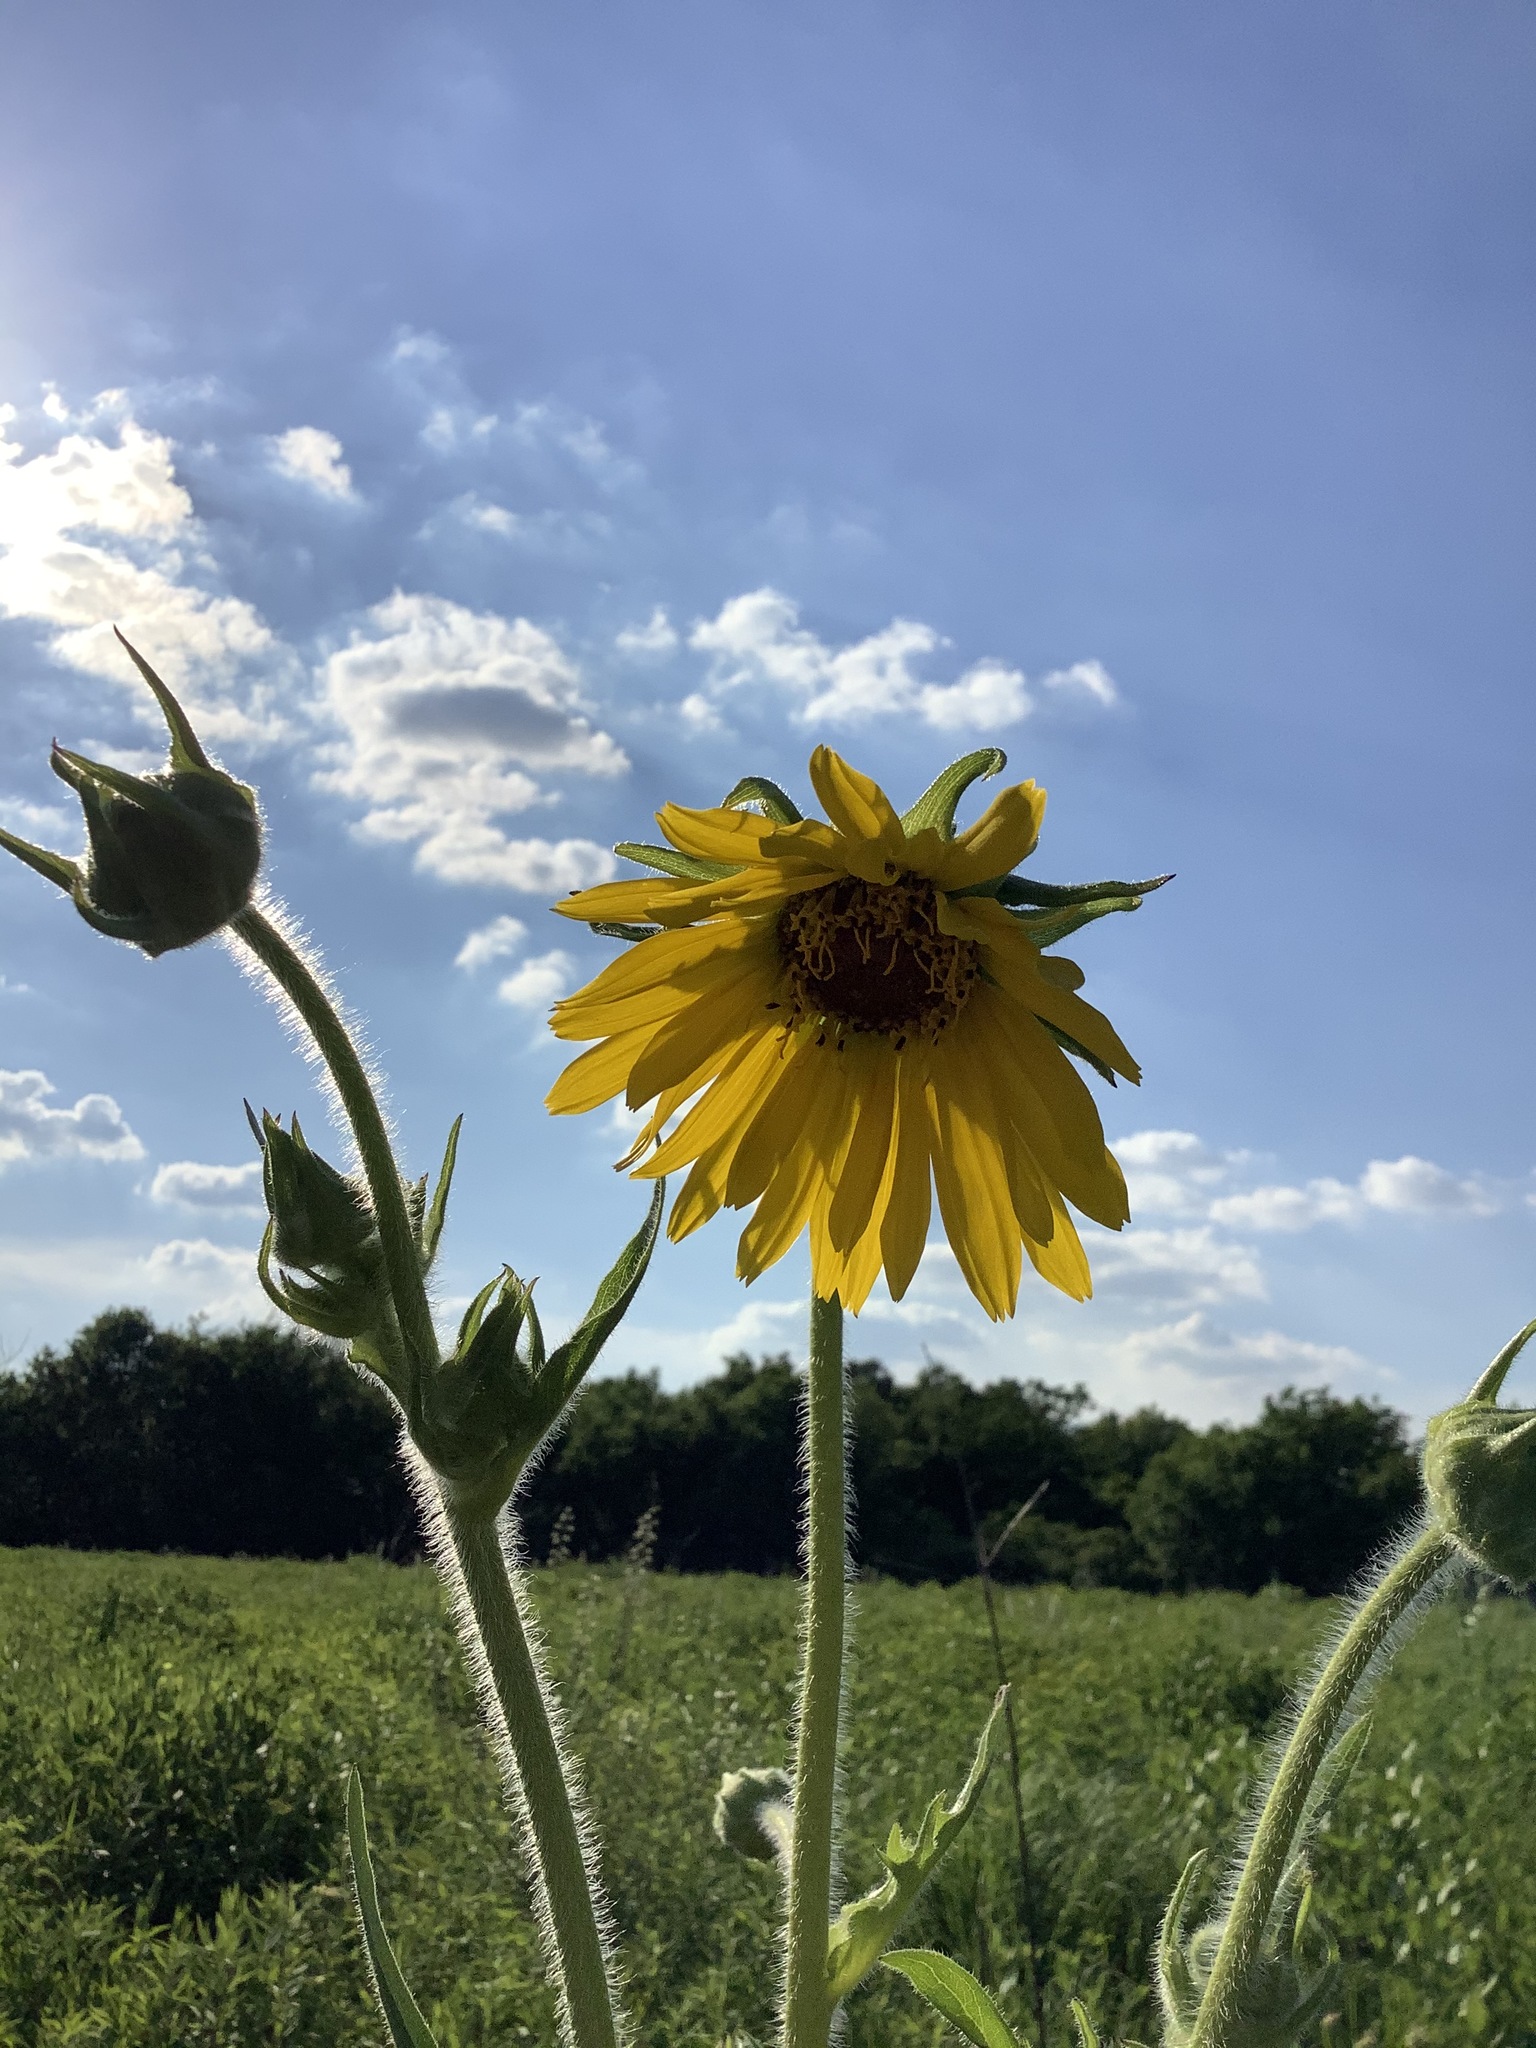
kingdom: Plantae
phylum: Tracheophyta
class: Magnoliopsida
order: Asterales
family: Asteraceae
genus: Silphium
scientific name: Silphium laciniatum
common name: Polarplant
